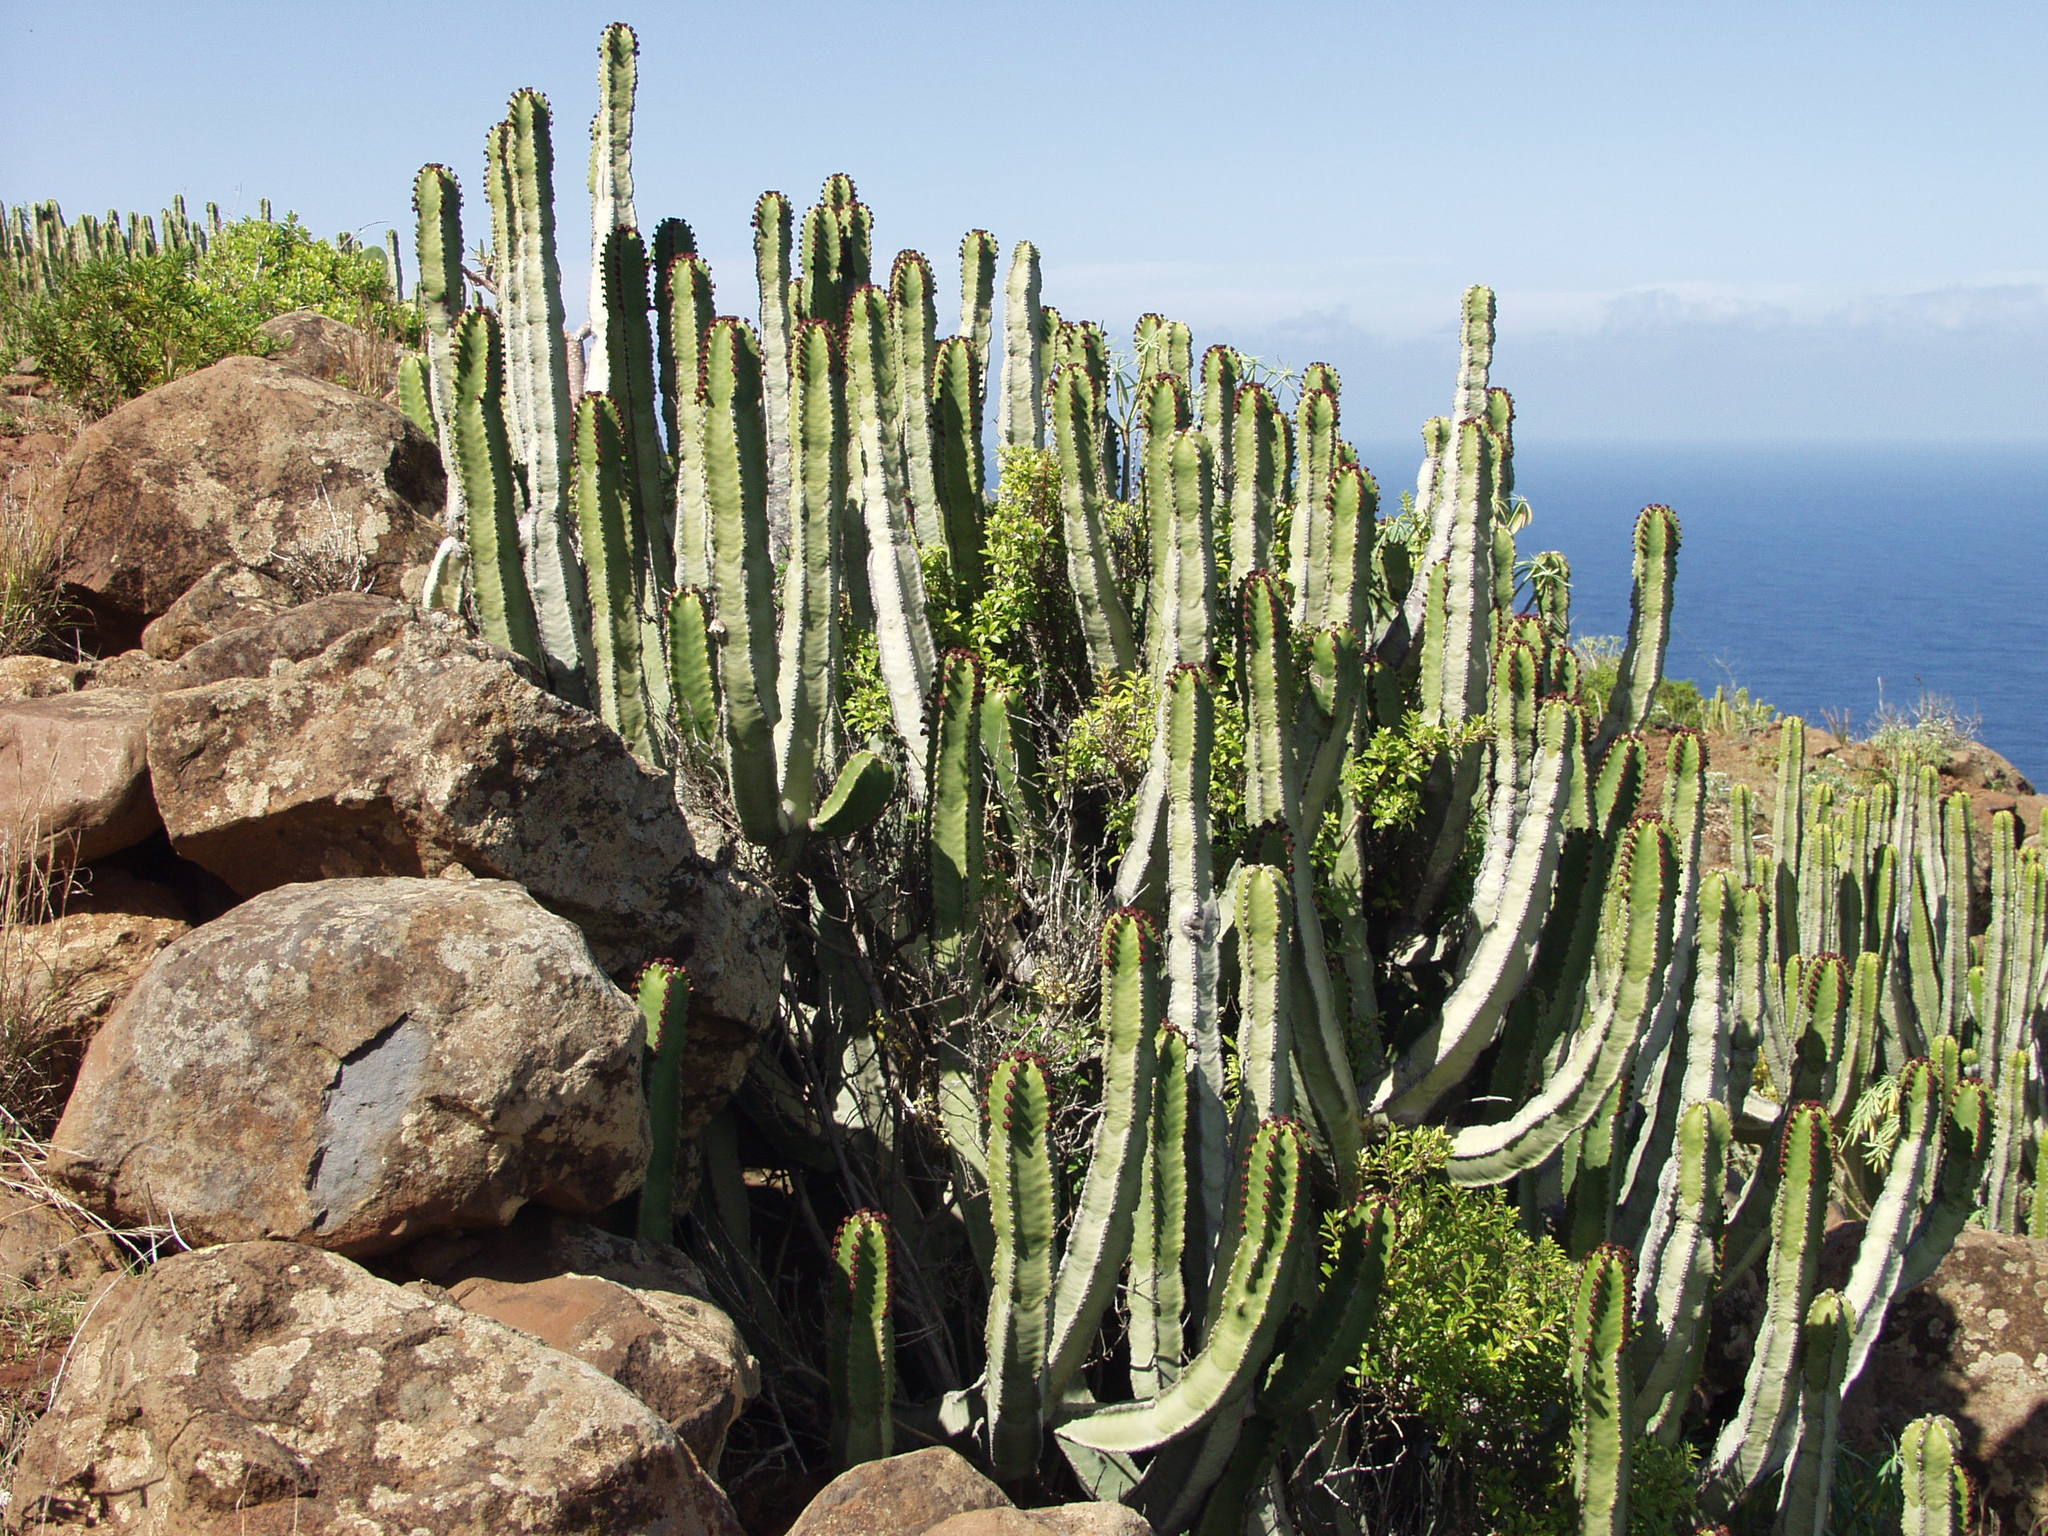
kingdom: Plantae
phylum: Tracheophyta
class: Magnoliopsida
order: Malpighiales
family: Euphorbiaceae
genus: Euphorbia
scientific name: Euphorbia canariensis
